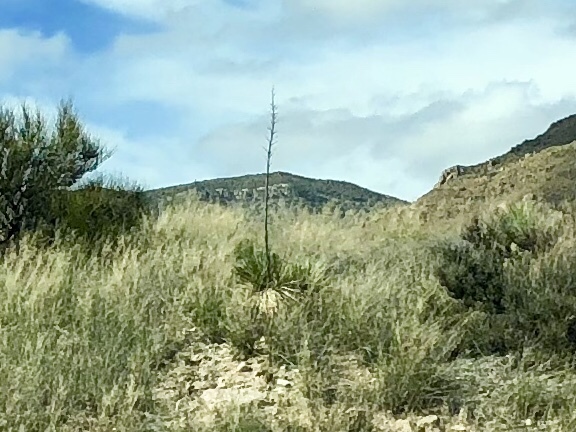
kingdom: Plantae
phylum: Tracheophyta
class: Liliopsida
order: Asparagales
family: Asparagaceae
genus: Yucca
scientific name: Yucca elata
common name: Palmella
